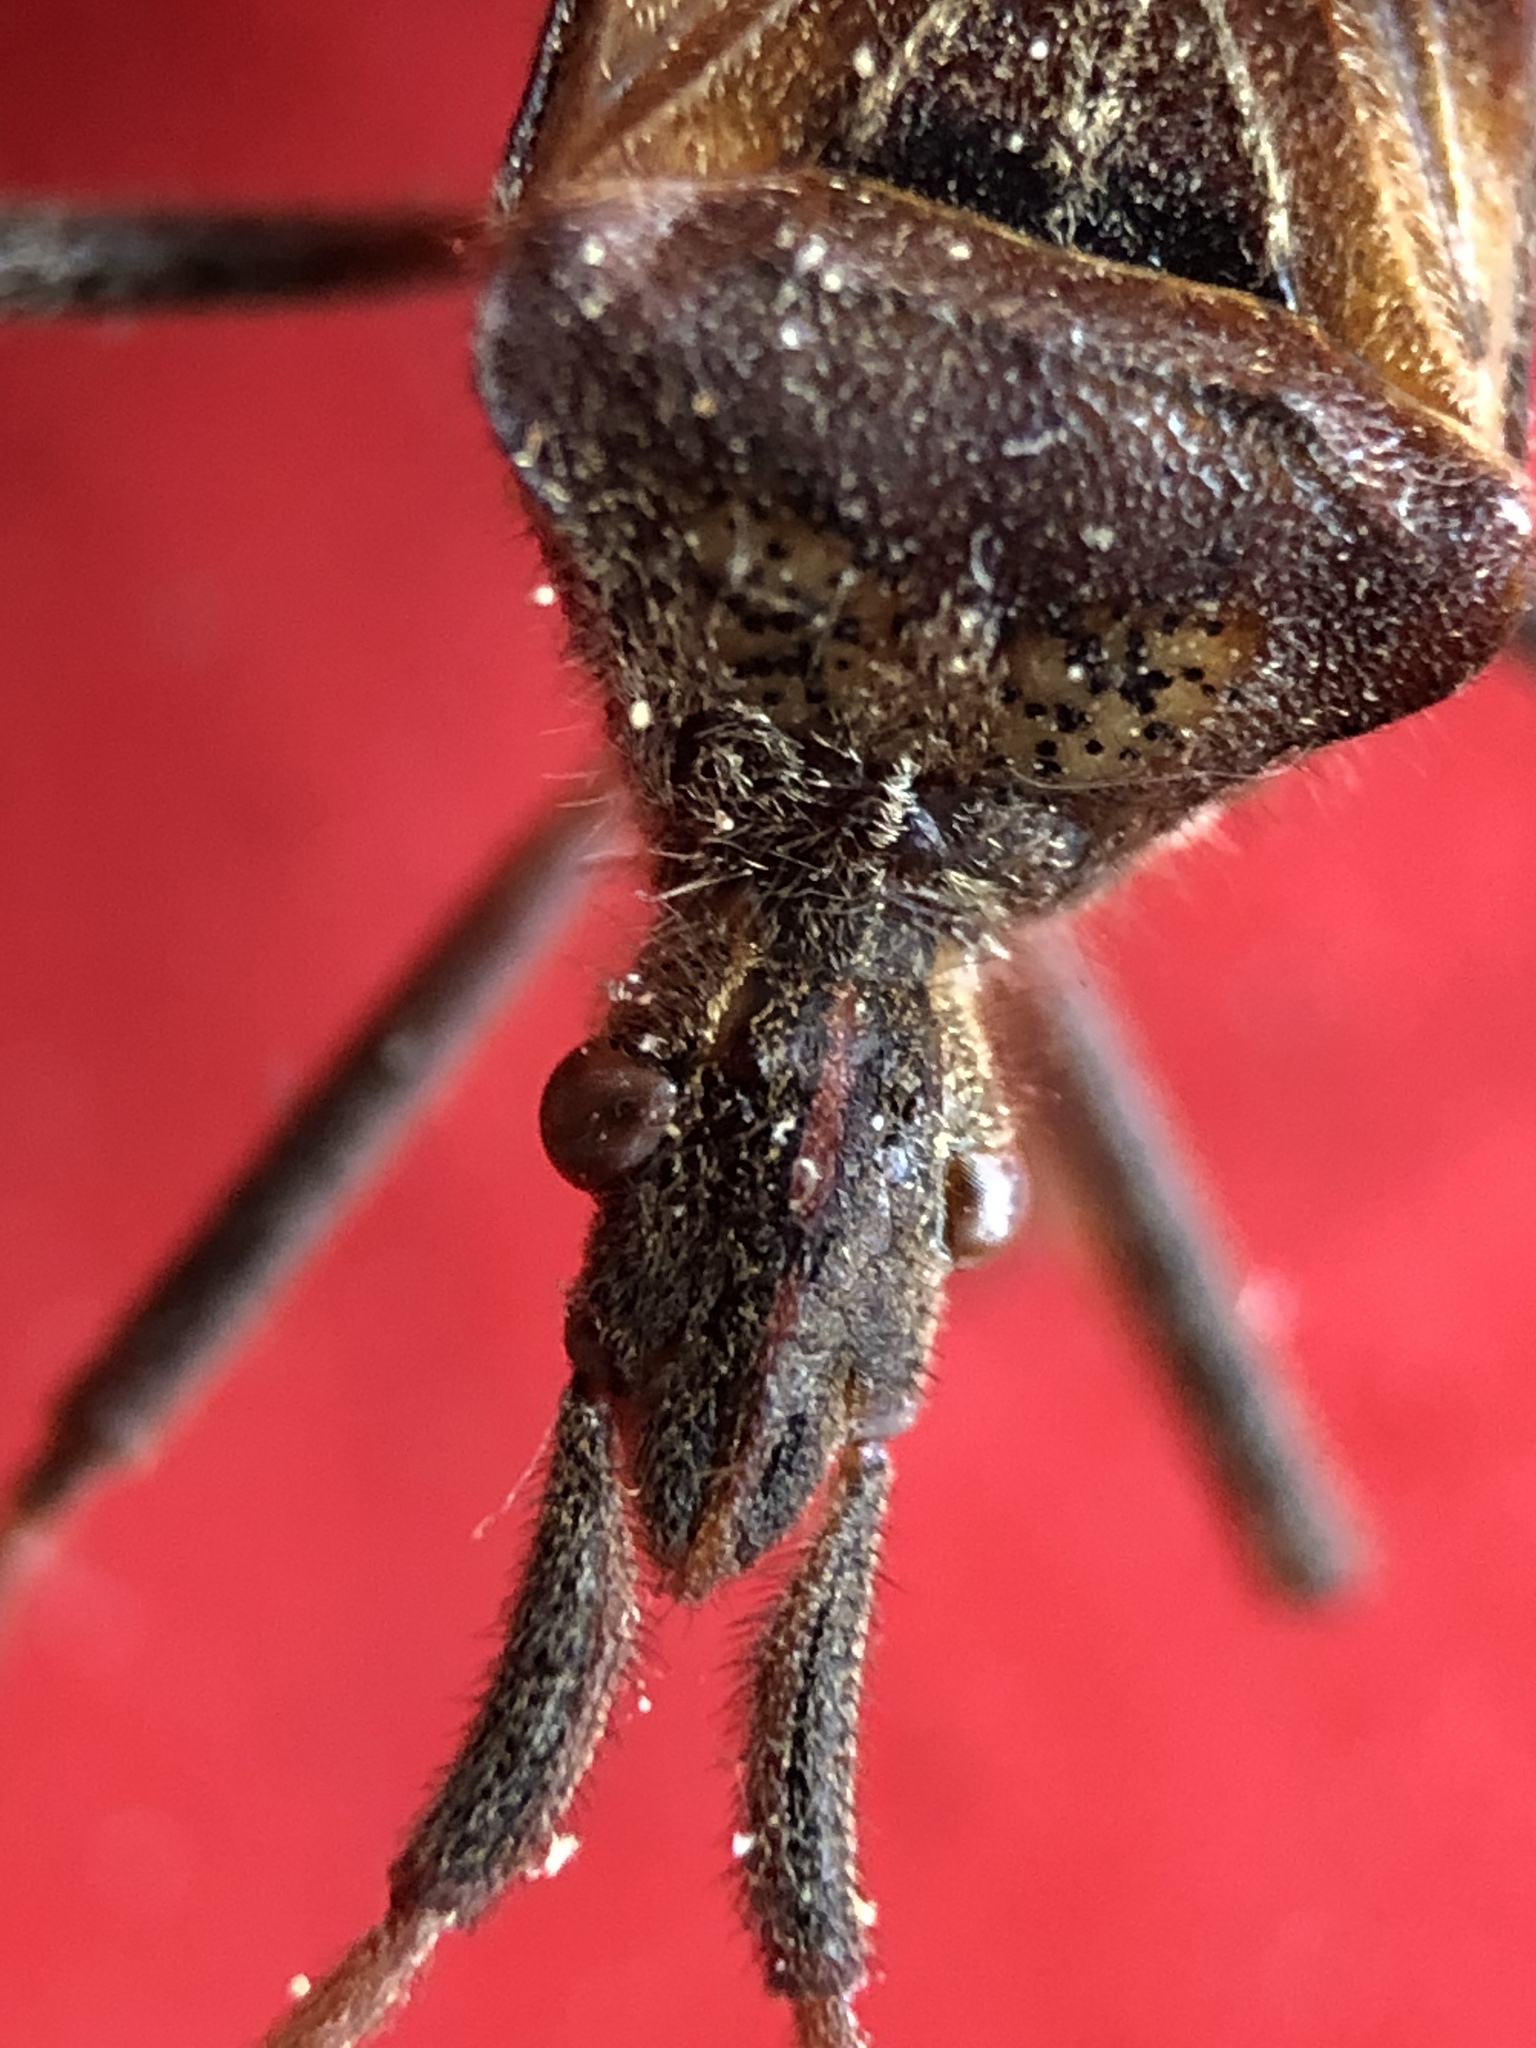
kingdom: Animalia
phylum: Arthropoda
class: Insecta
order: Hemiptera
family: Coreidae
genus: Leptoglossus
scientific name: Leptoglossus occidentalis
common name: Western conifer-seed bug
